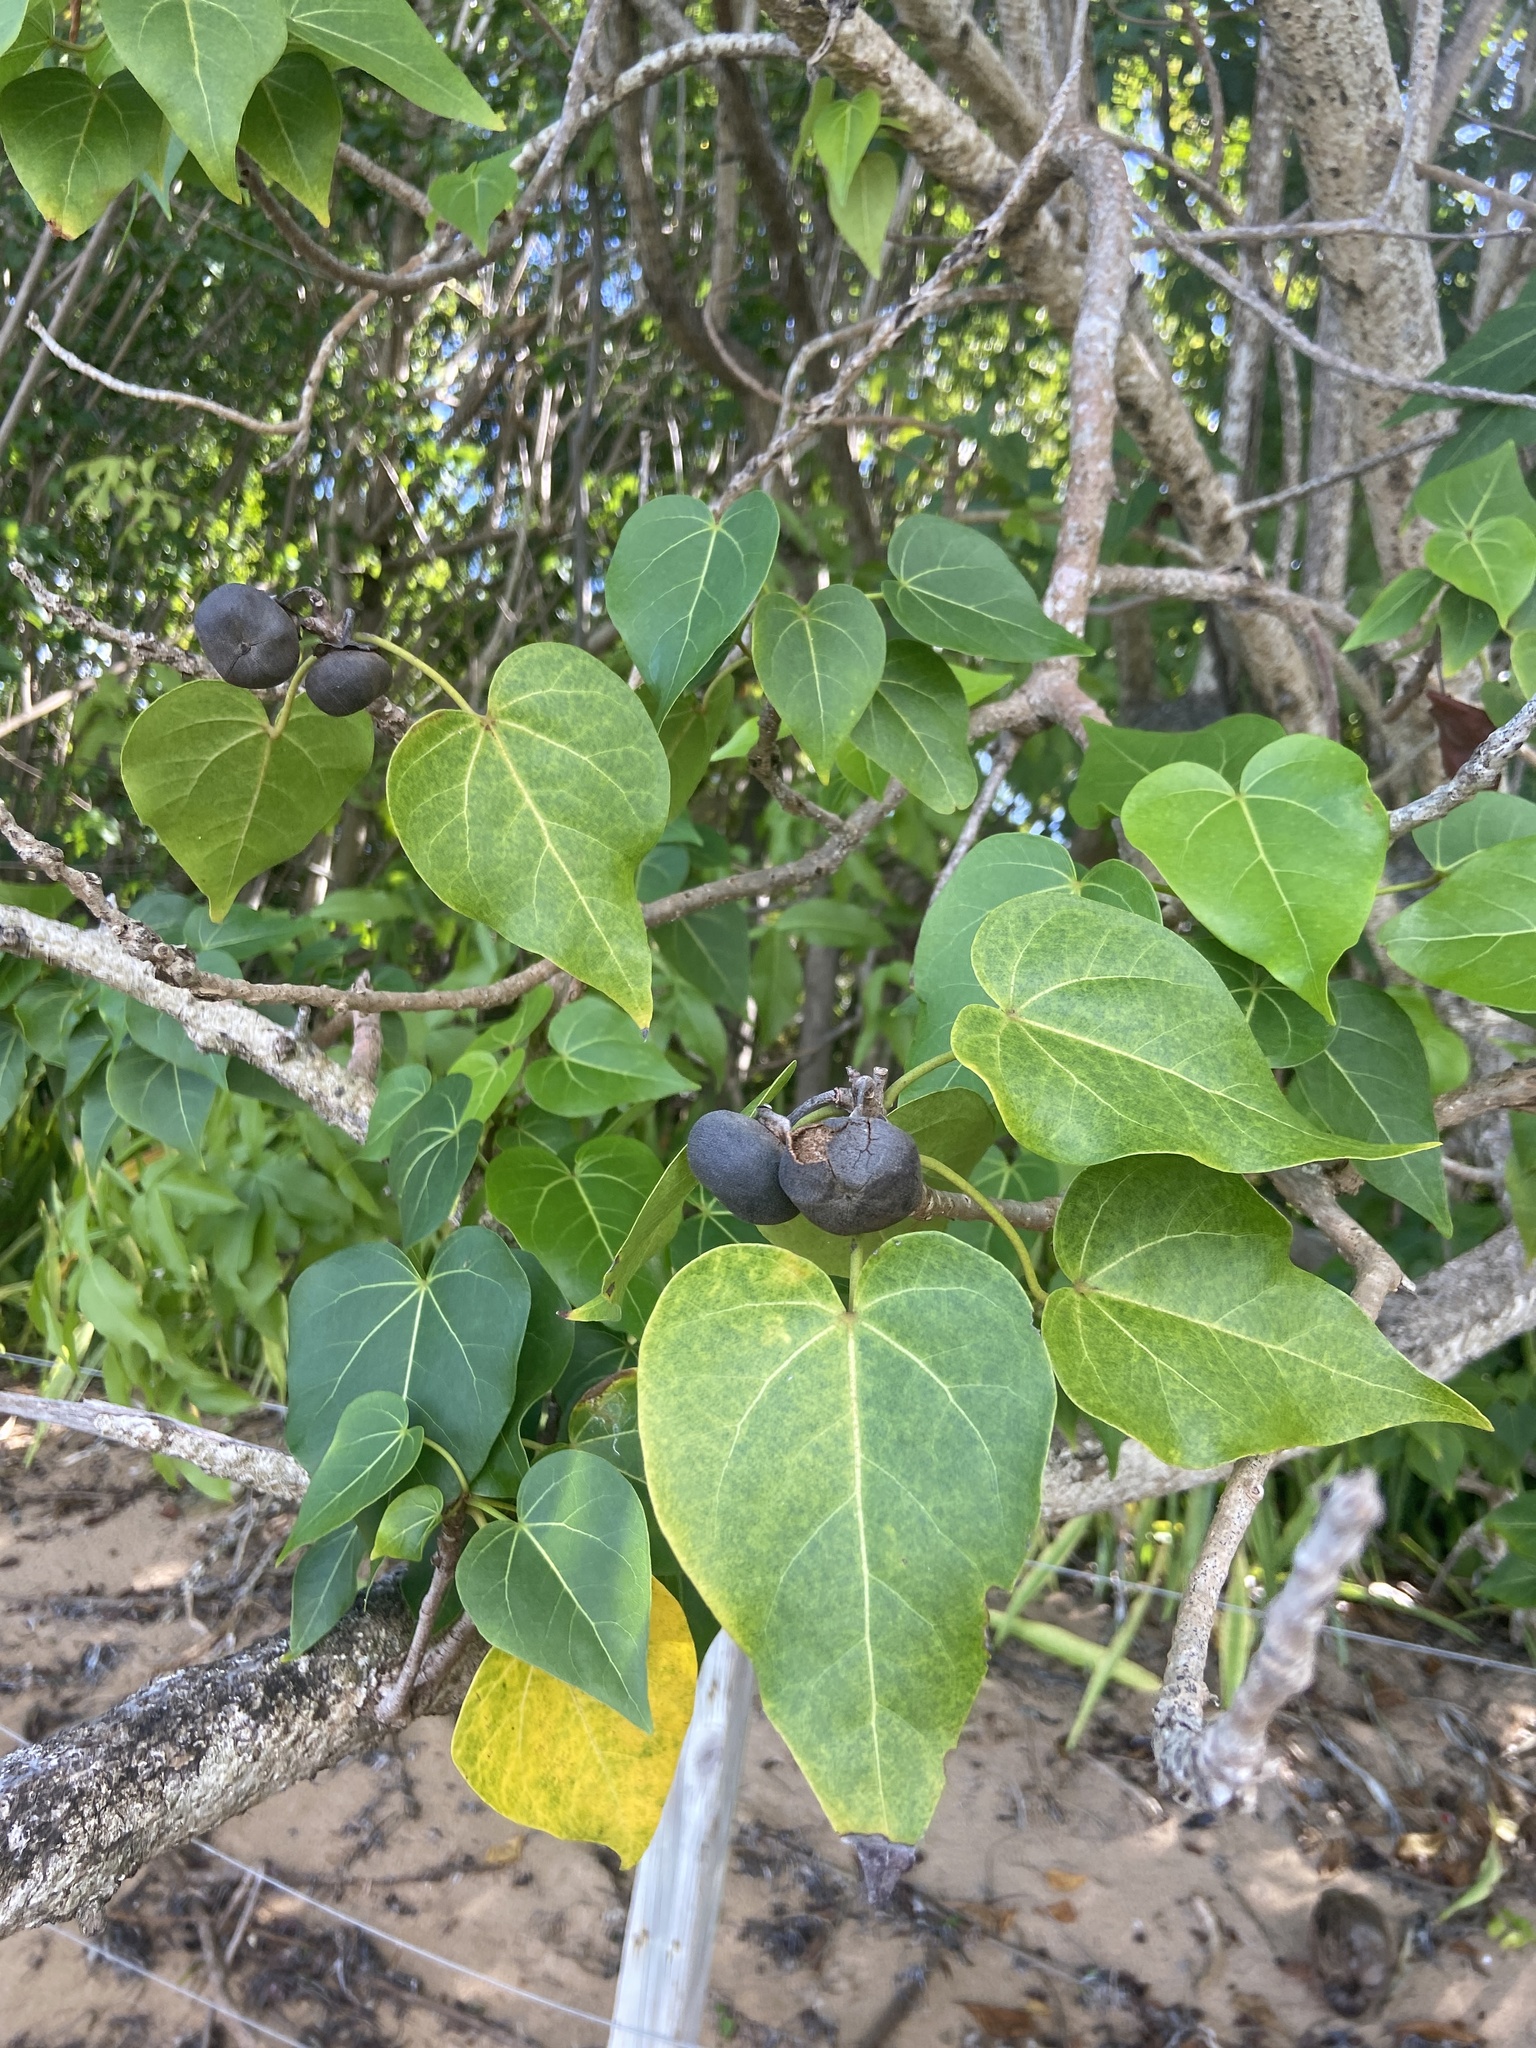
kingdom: Plantae
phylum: Tracheophyta
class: Magnoliopsida
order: Malvales
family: Malvaceae
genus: Thespesia
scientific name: Thespesia populnea
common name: Seaside mahoe
